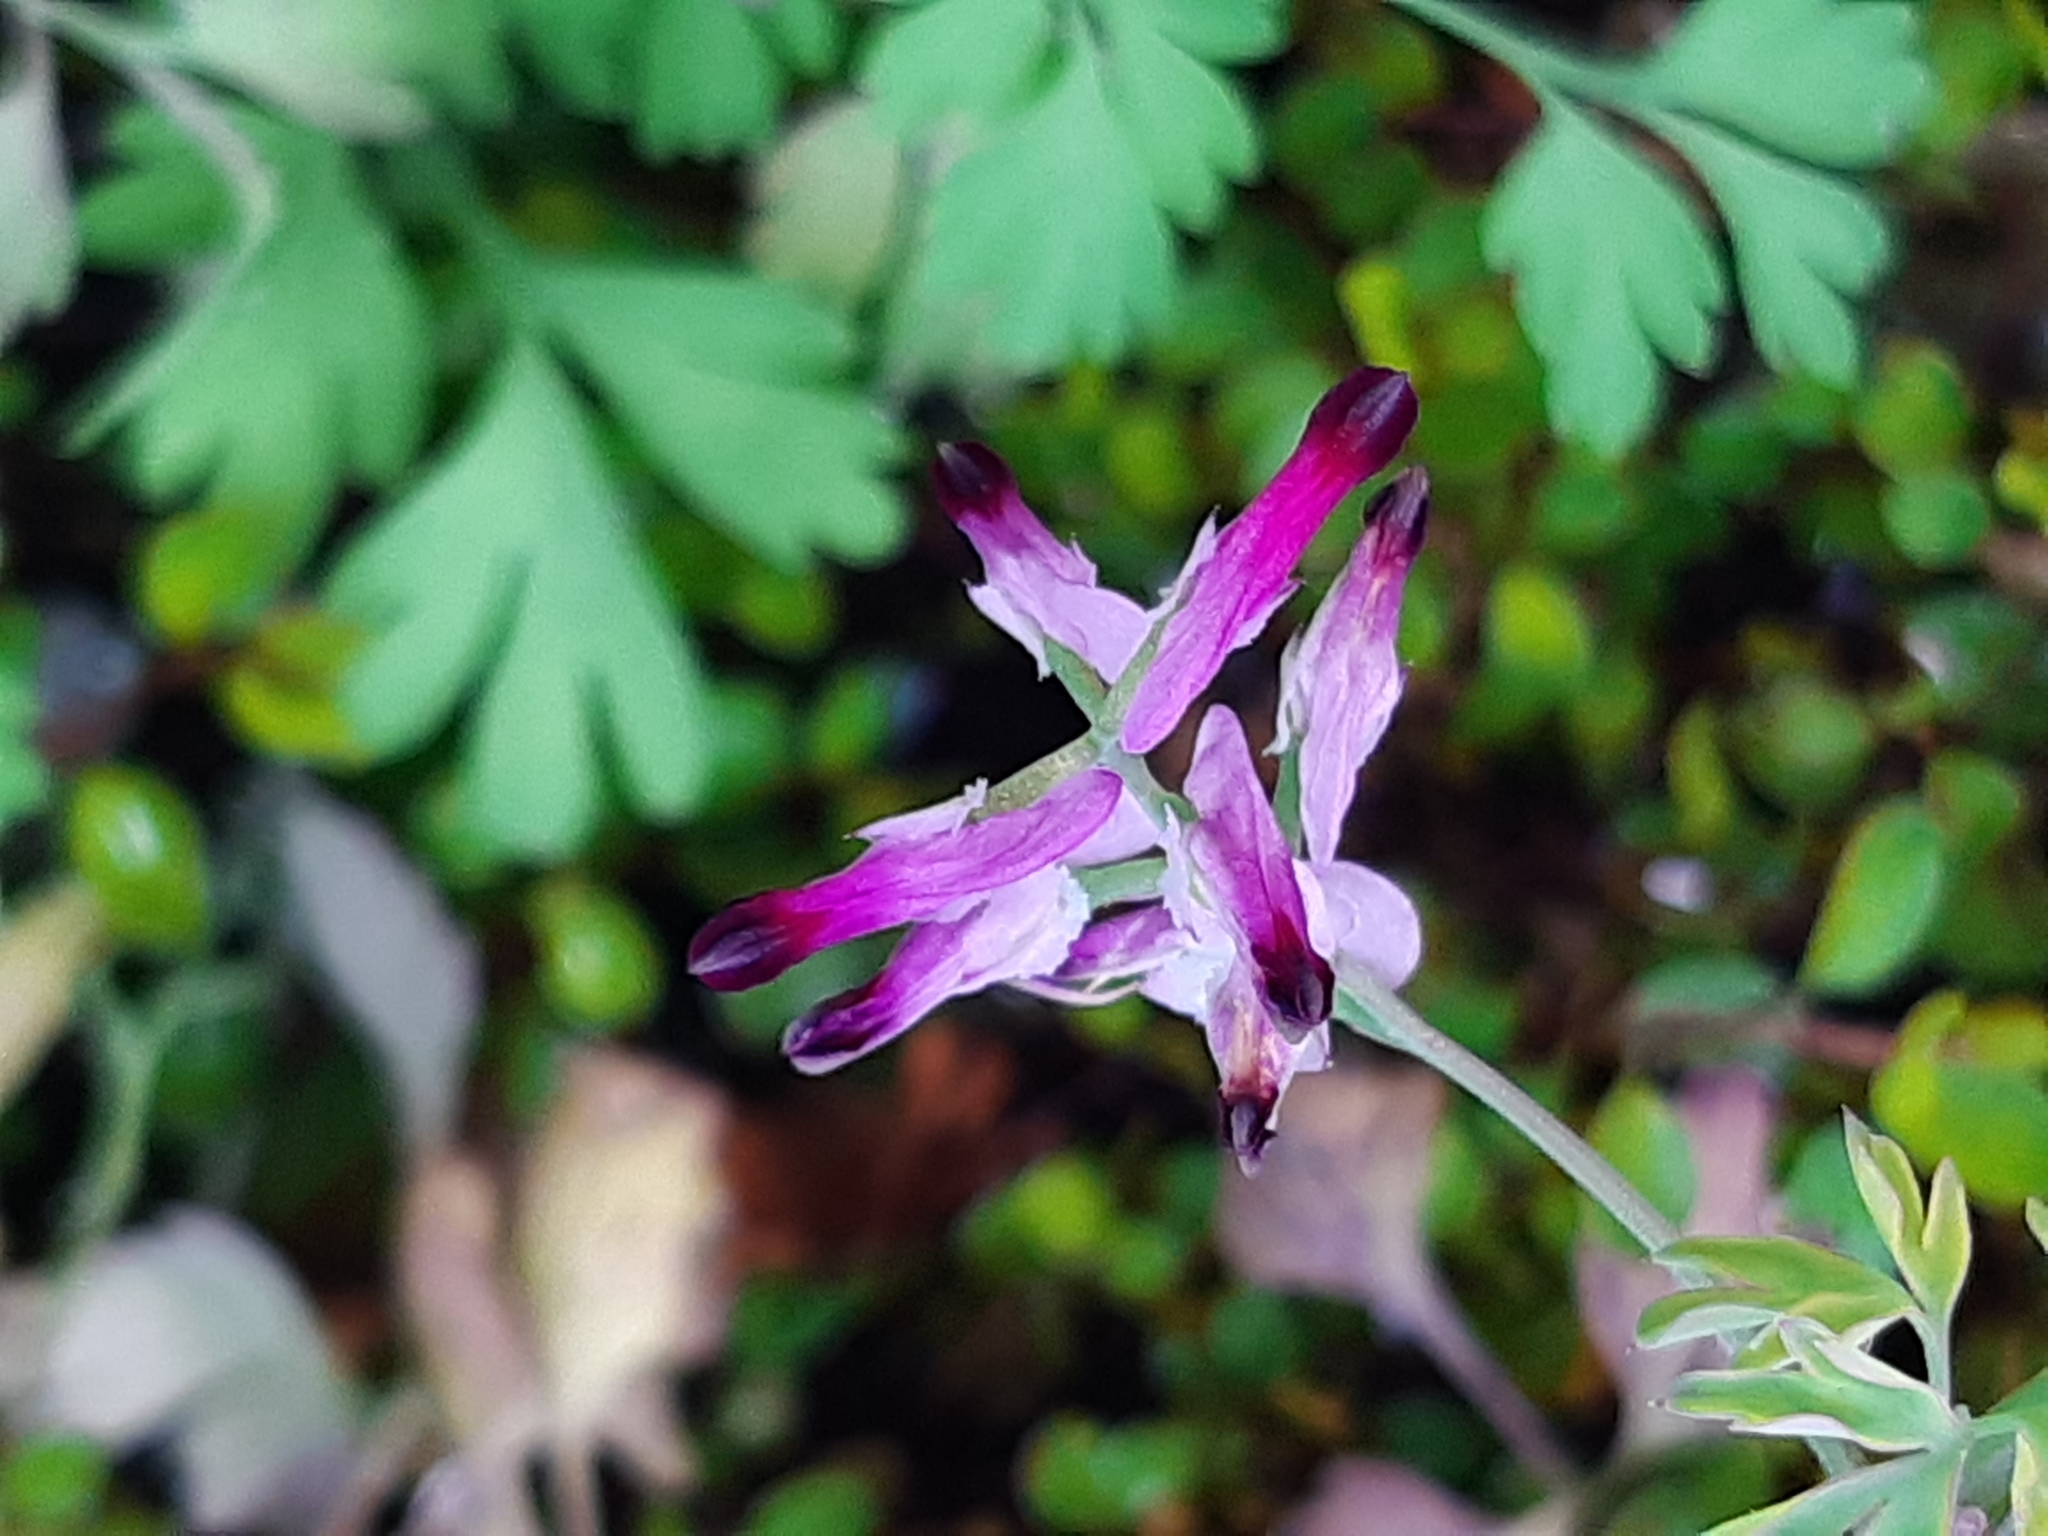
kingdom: Plantae
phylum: Tracheophyta
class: Magnoliopsida
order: Ranunculales
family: Papaveraceae
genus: Fumaria
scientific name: Fumaria muralis
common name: Common ramping-fumitory
